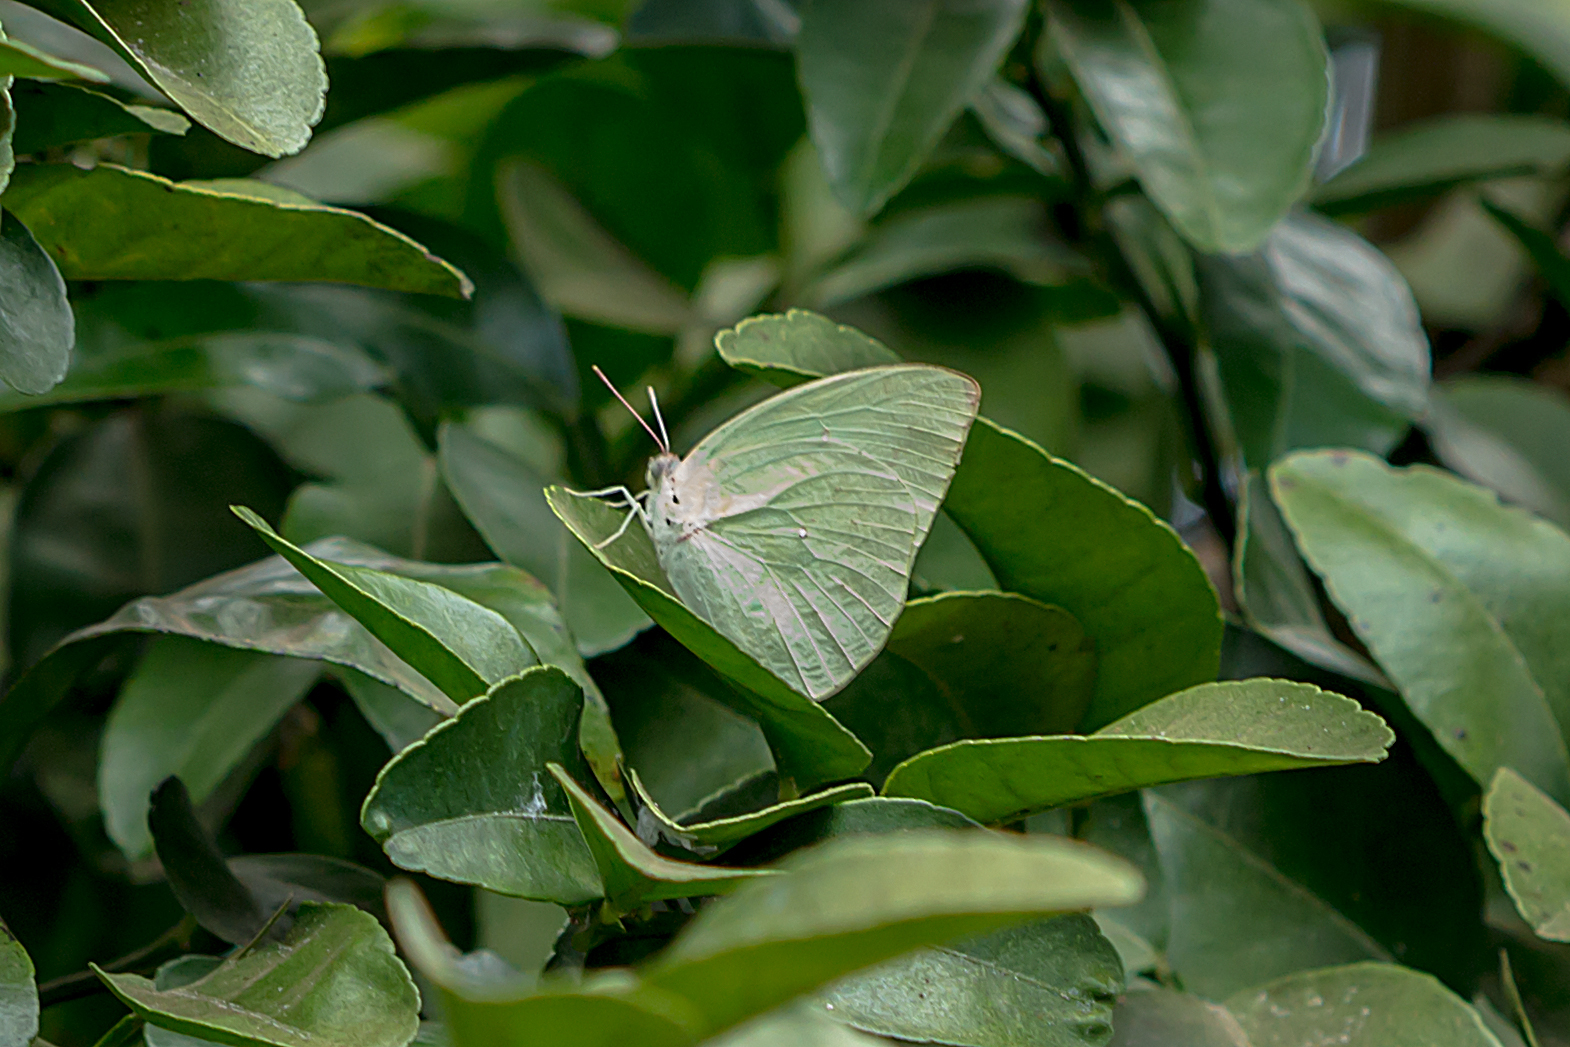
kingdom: Animalia
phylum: Arthropoda
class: Insecta
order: Lepidoptera
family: Pieridae
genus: Catopsilia
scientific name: Catopsilia pomona
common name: Common emigrant
